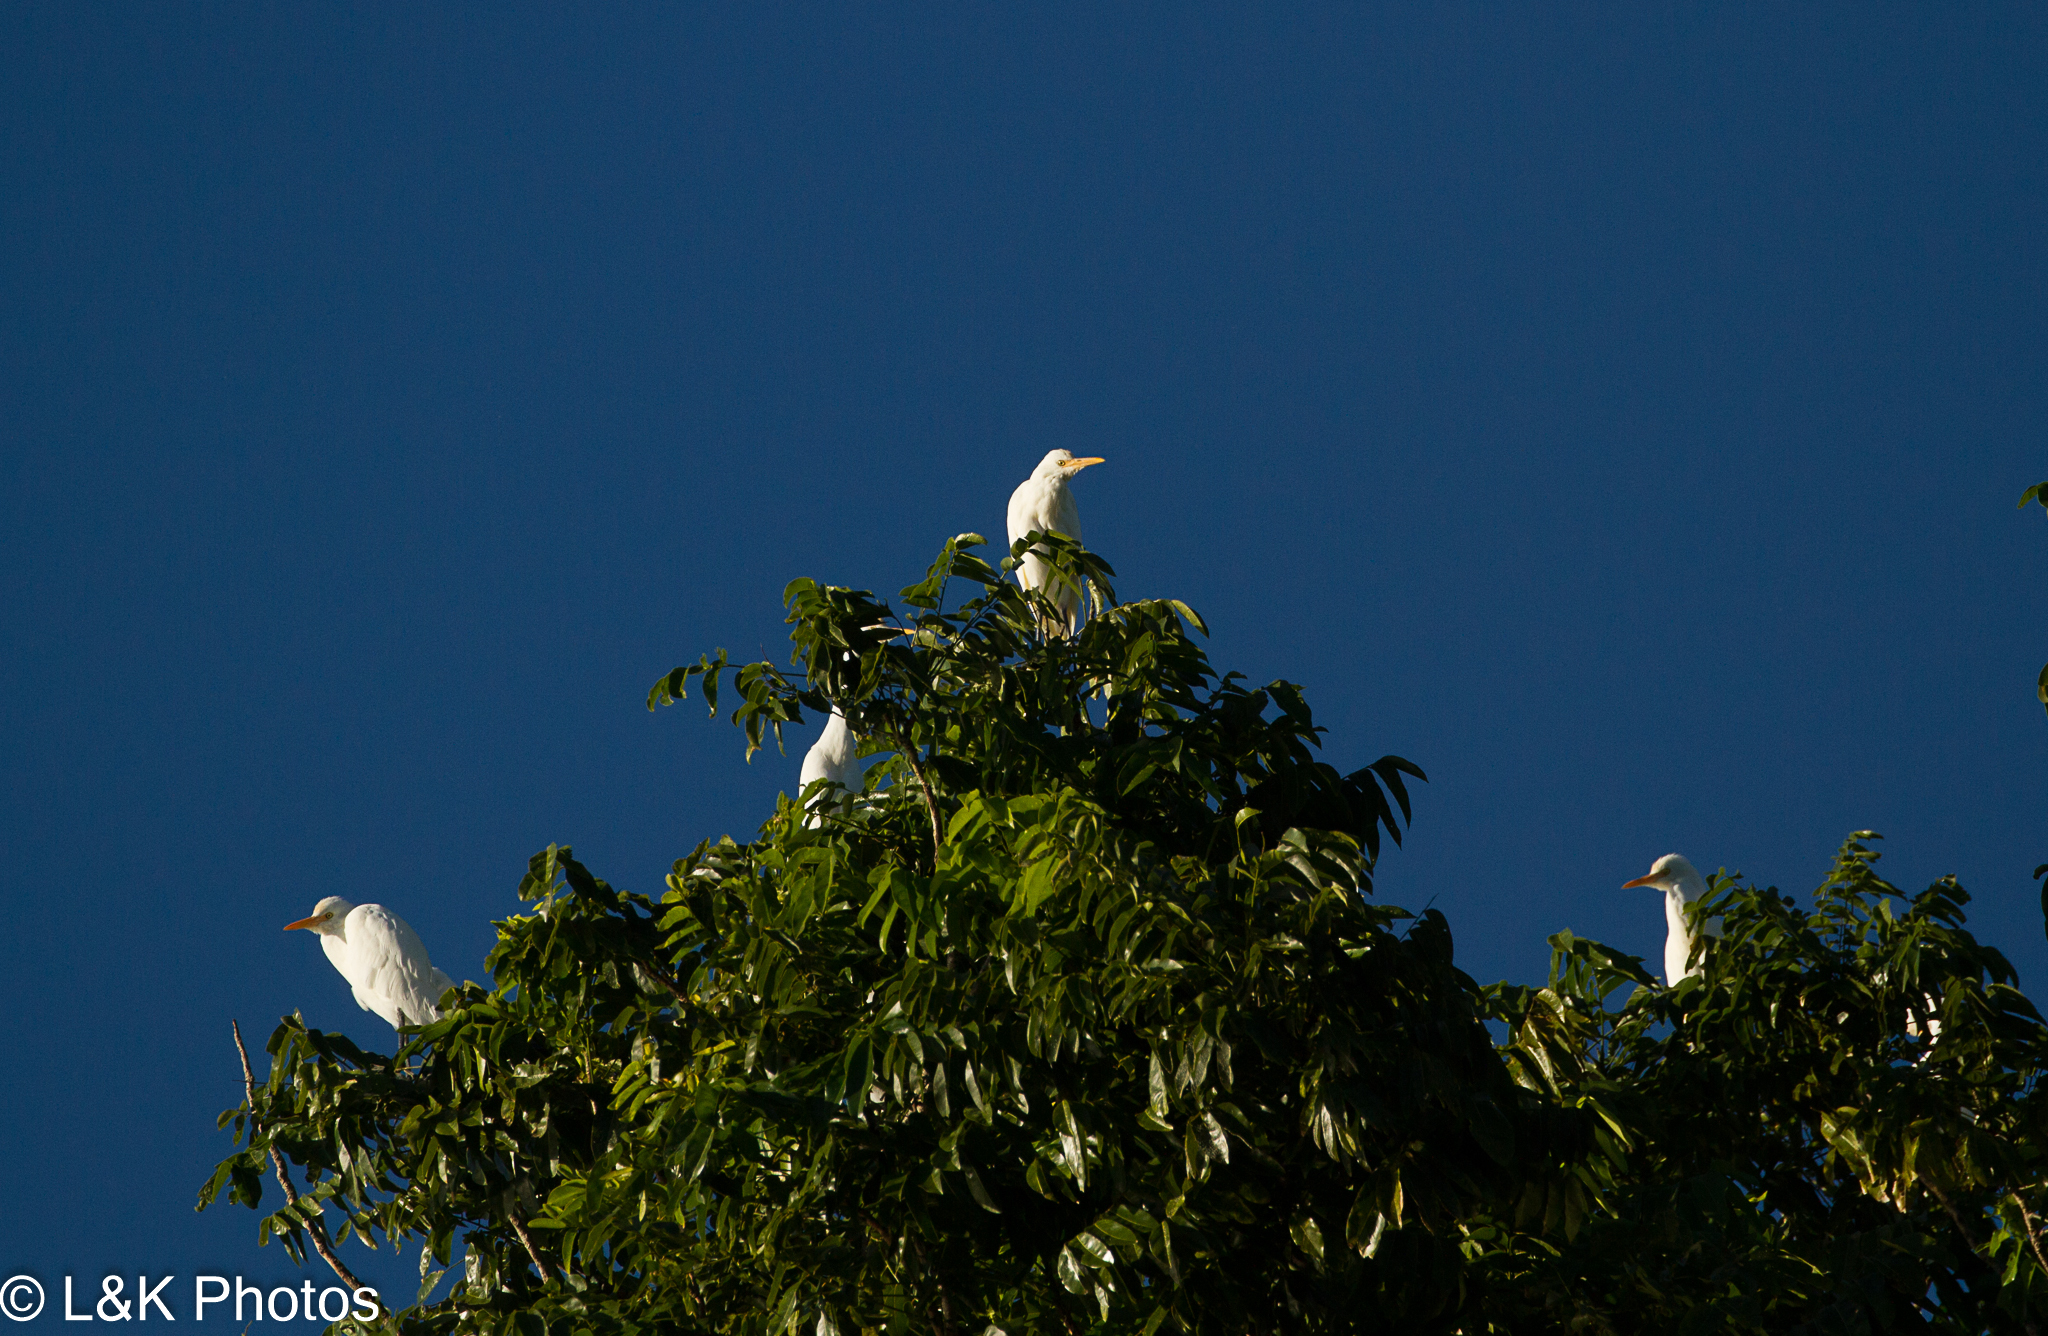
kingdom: Animalia
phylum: Chordata
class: Aves
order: Pelecaniformes
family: Ardeidae
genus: Bubulcus
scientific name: Bubulcus coromandus
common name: Eastern cattle egret
